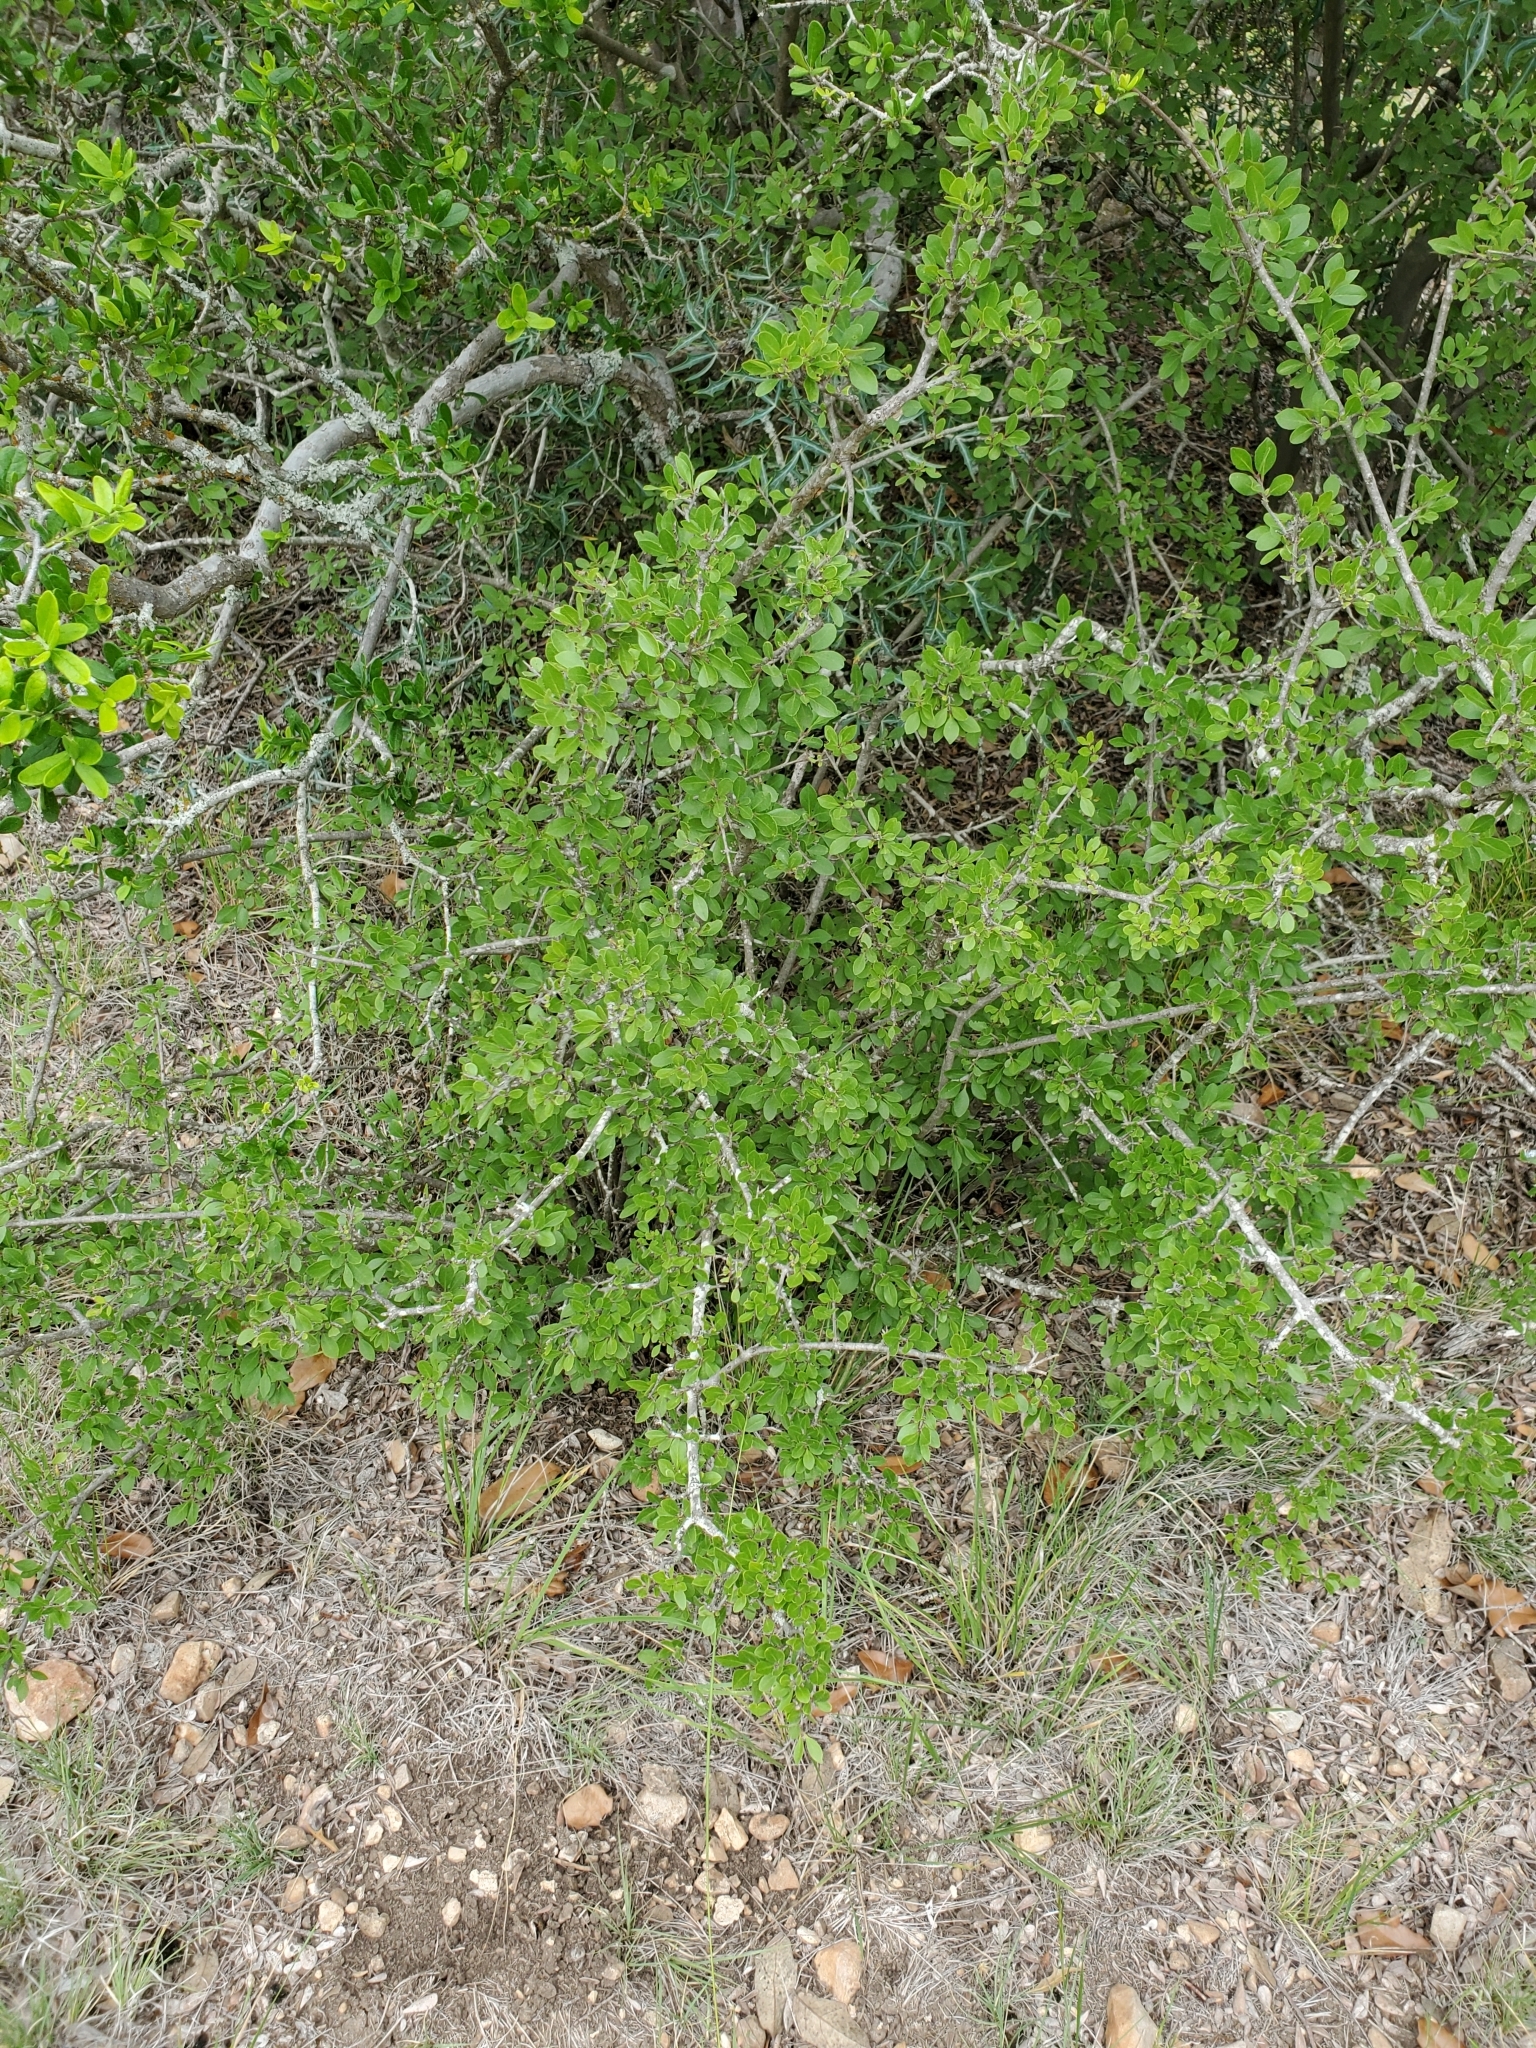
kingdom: Plantae
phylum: Tracheophyta
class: Magnoliopsida
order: Lamiales
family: Oleaceae
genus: Forestiera
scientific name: Forestiera pubescens
